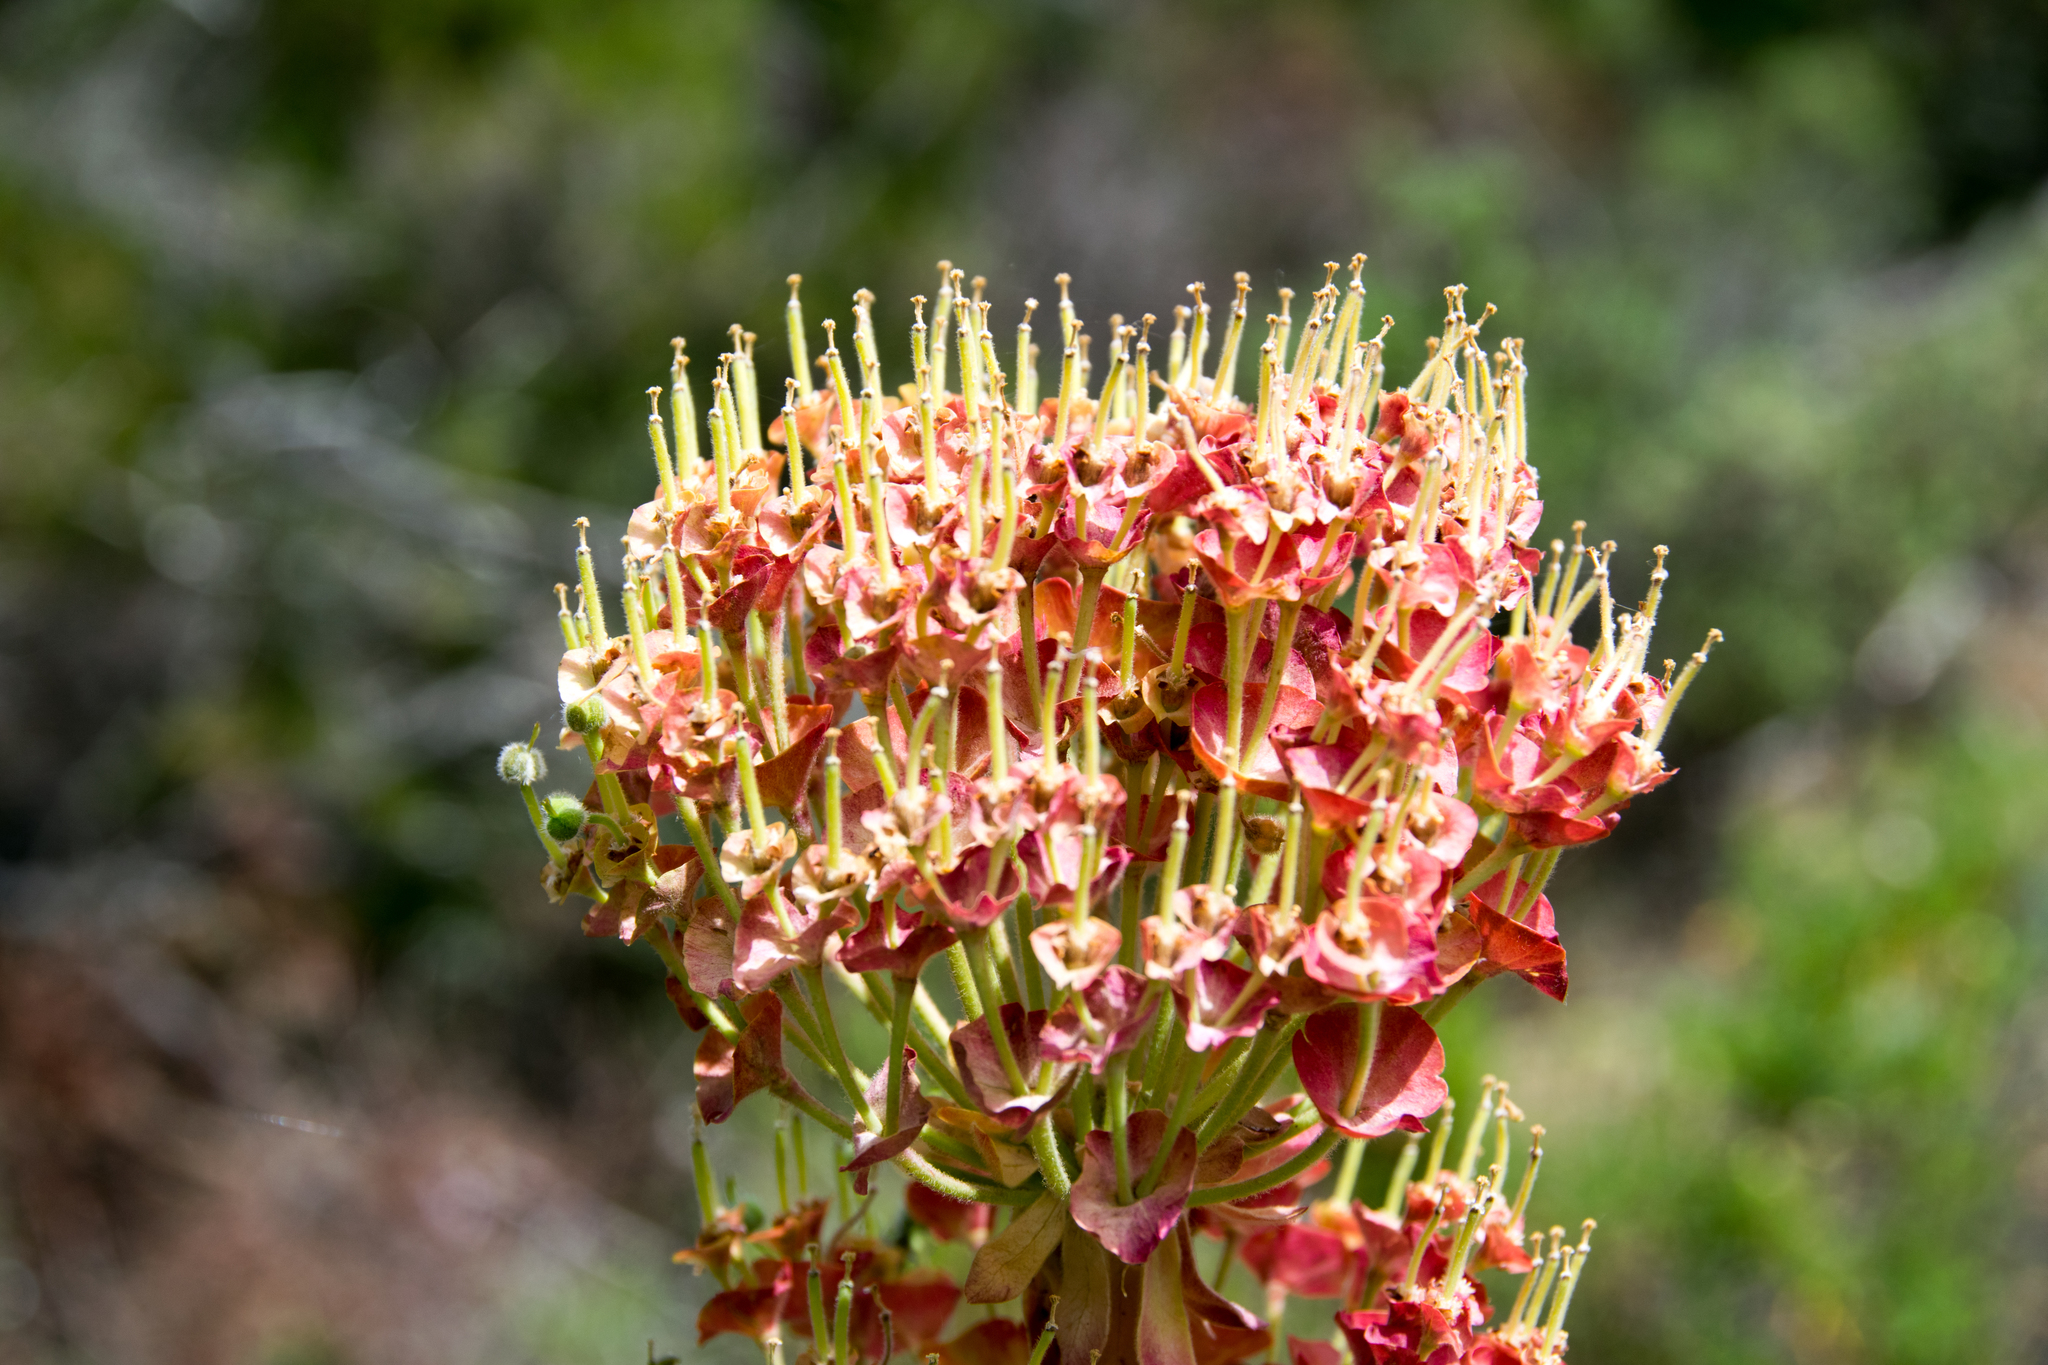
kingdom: Plantae
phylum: Tracheophyta
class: Magnoliopsida
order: Malpighiales
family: Euphorbiaceae
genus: Euphorbia
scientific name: Euphorbia characias
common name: Mediterranean spurge
